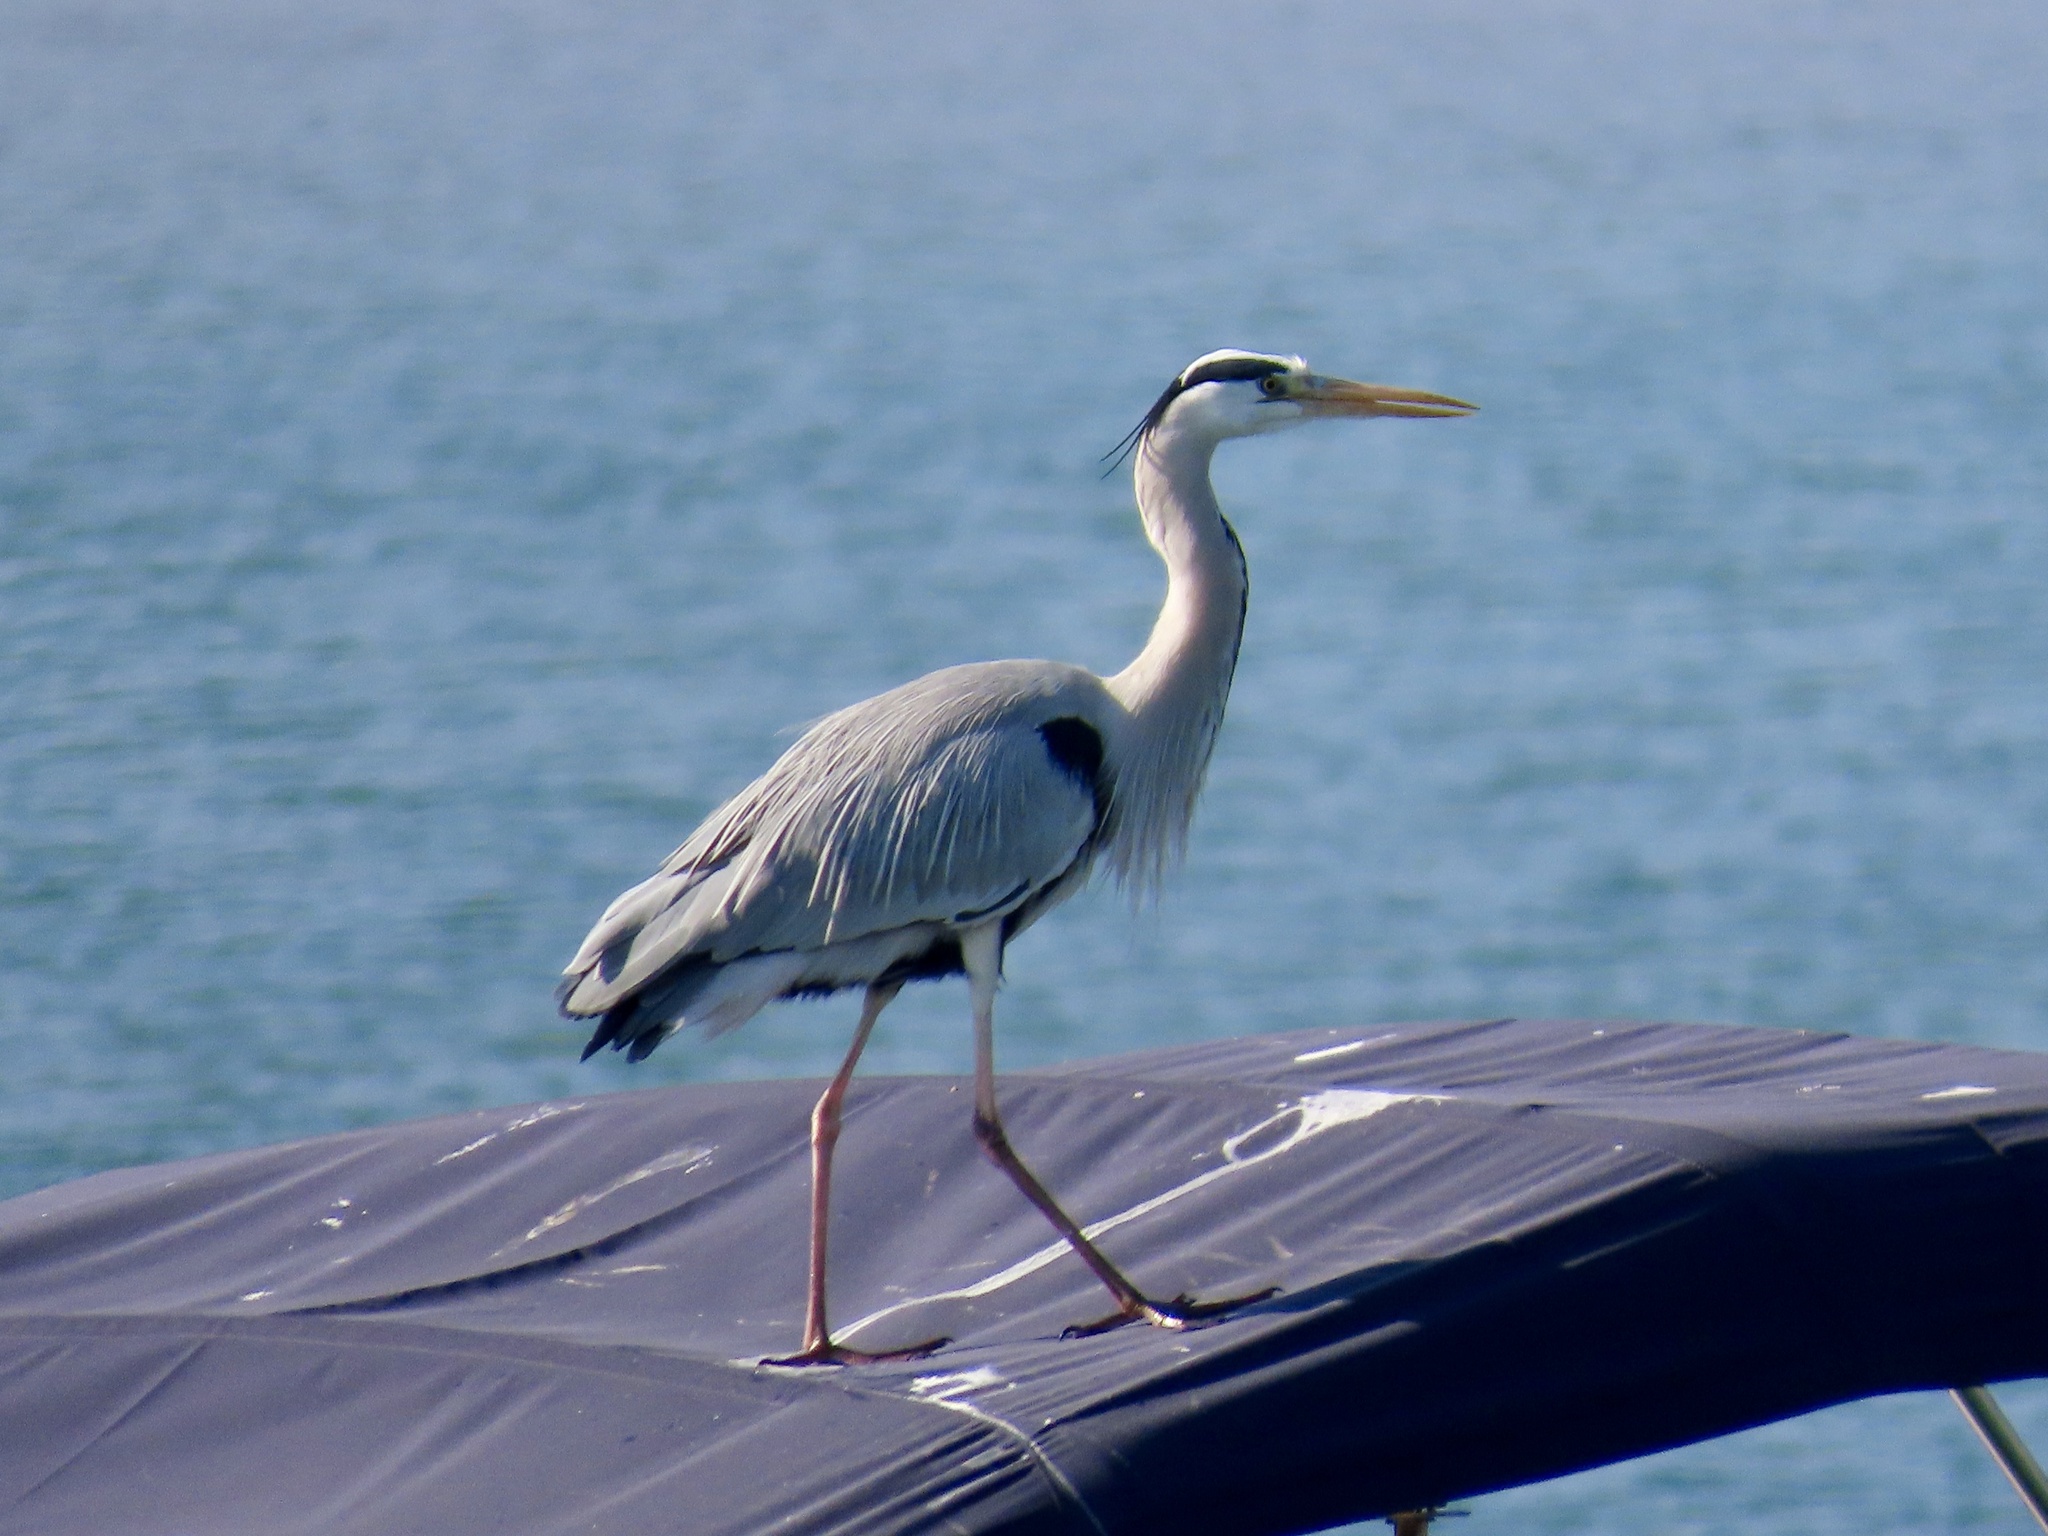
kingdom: Animalia
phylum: Chordata
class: Aves
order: Pelecaniformes
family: Ardeidae
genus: Ardea
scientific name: Ardea cinerea
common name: Grey heron
